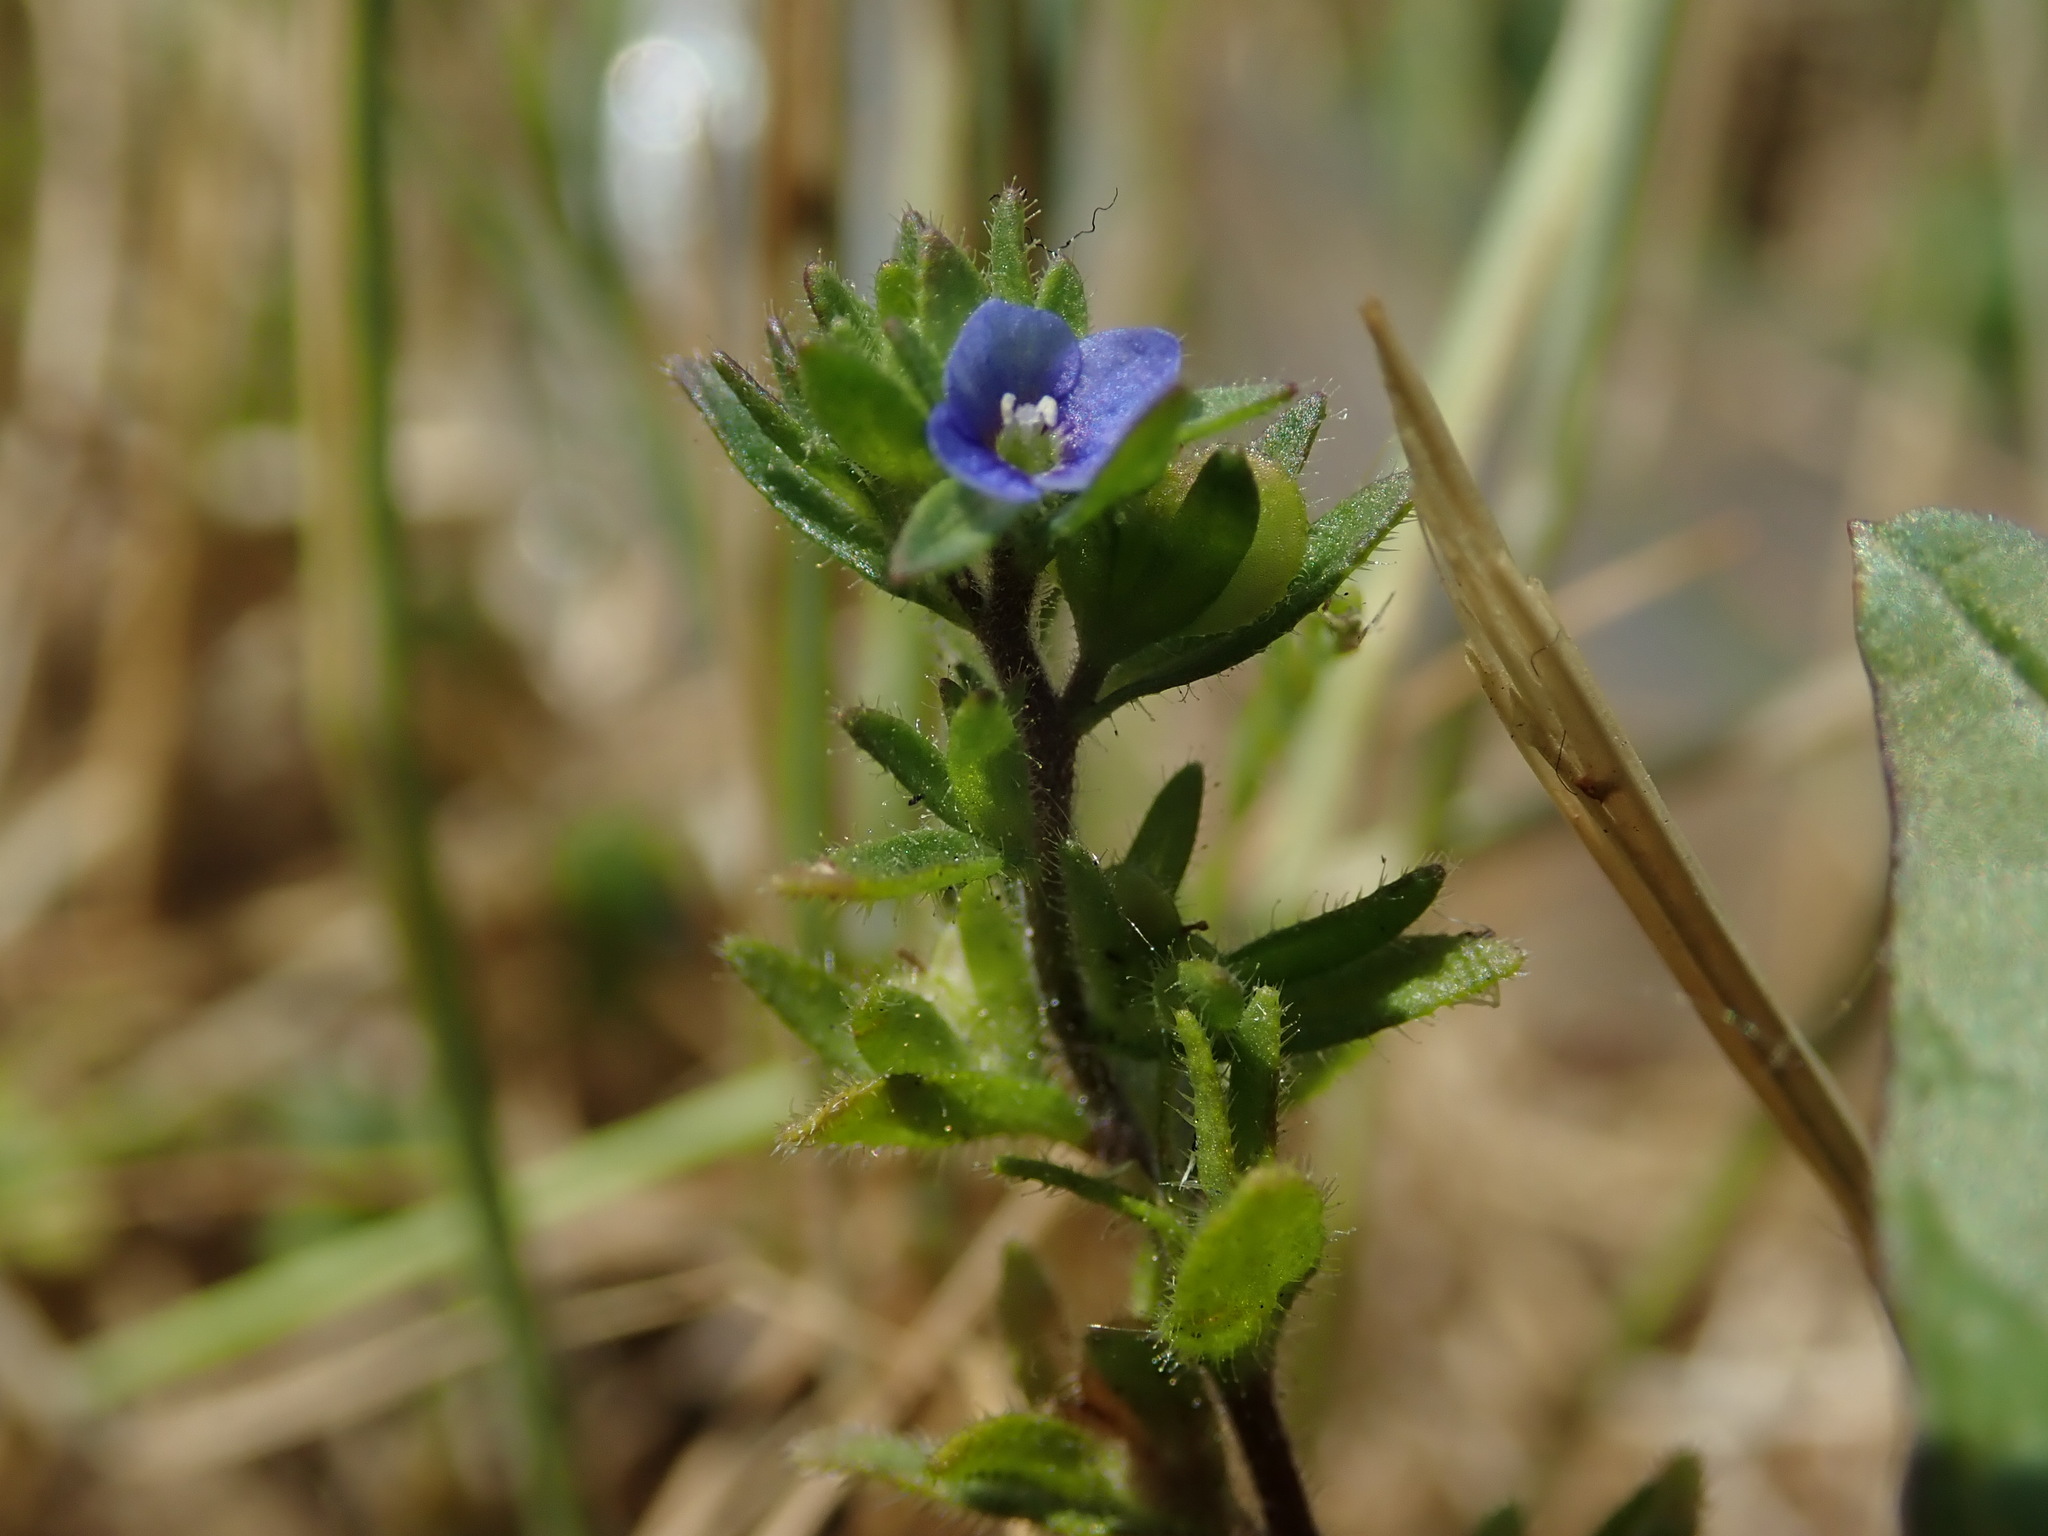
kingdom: Plantae
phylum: Tracheophyta
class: Magnoliopsida
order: Lamiales
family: Plantaginaceae
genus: Veronica
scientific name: Veronica arvensis
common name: Corn speedwell
